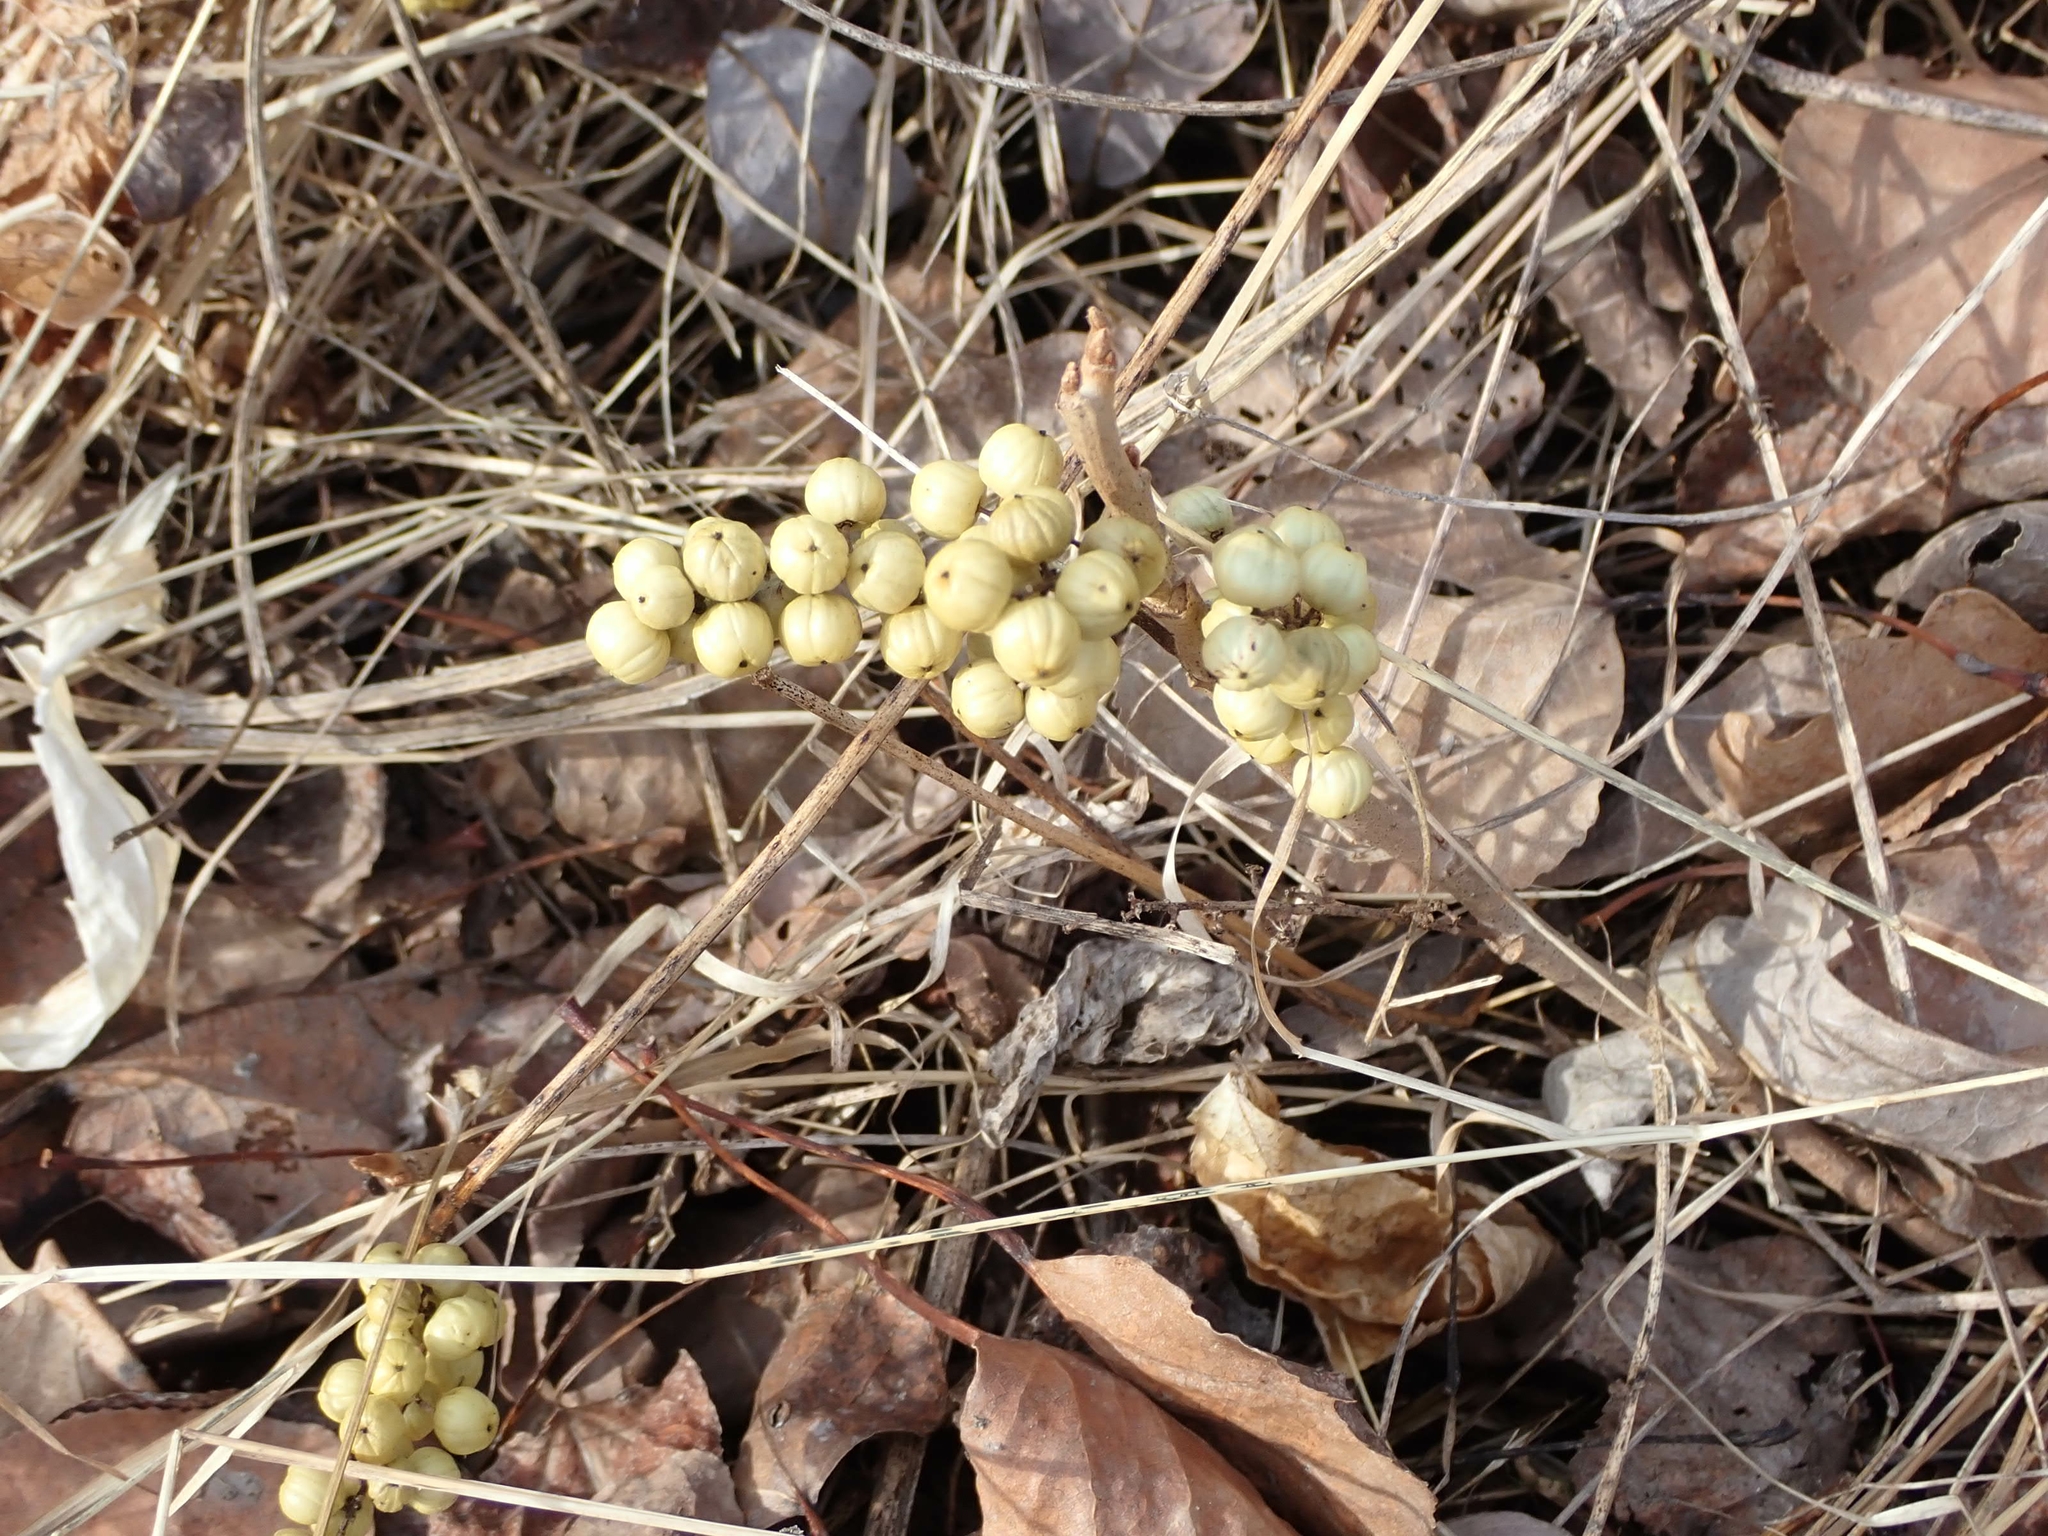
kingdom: Plantae
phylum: Tracheophyta
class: Magnoliopsida
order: Sapindales
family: Anacardiaceae
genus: Toxicodendron
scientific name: Toxicodendron rydbergii
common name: Rydberg's poison-ivy
